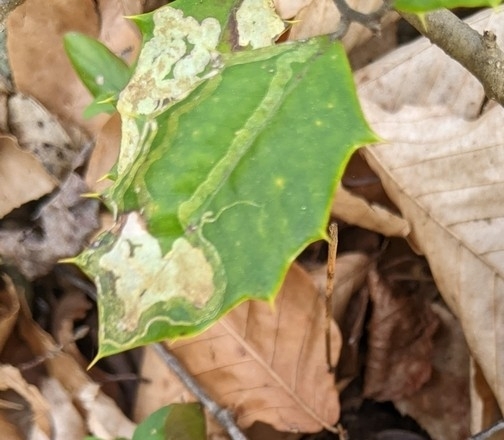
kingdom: Animalia
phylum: Arthropoda
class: Insecta
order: Diptera
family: Agromyzidae
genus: Phytomyza
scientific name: Phytomyza opacae
